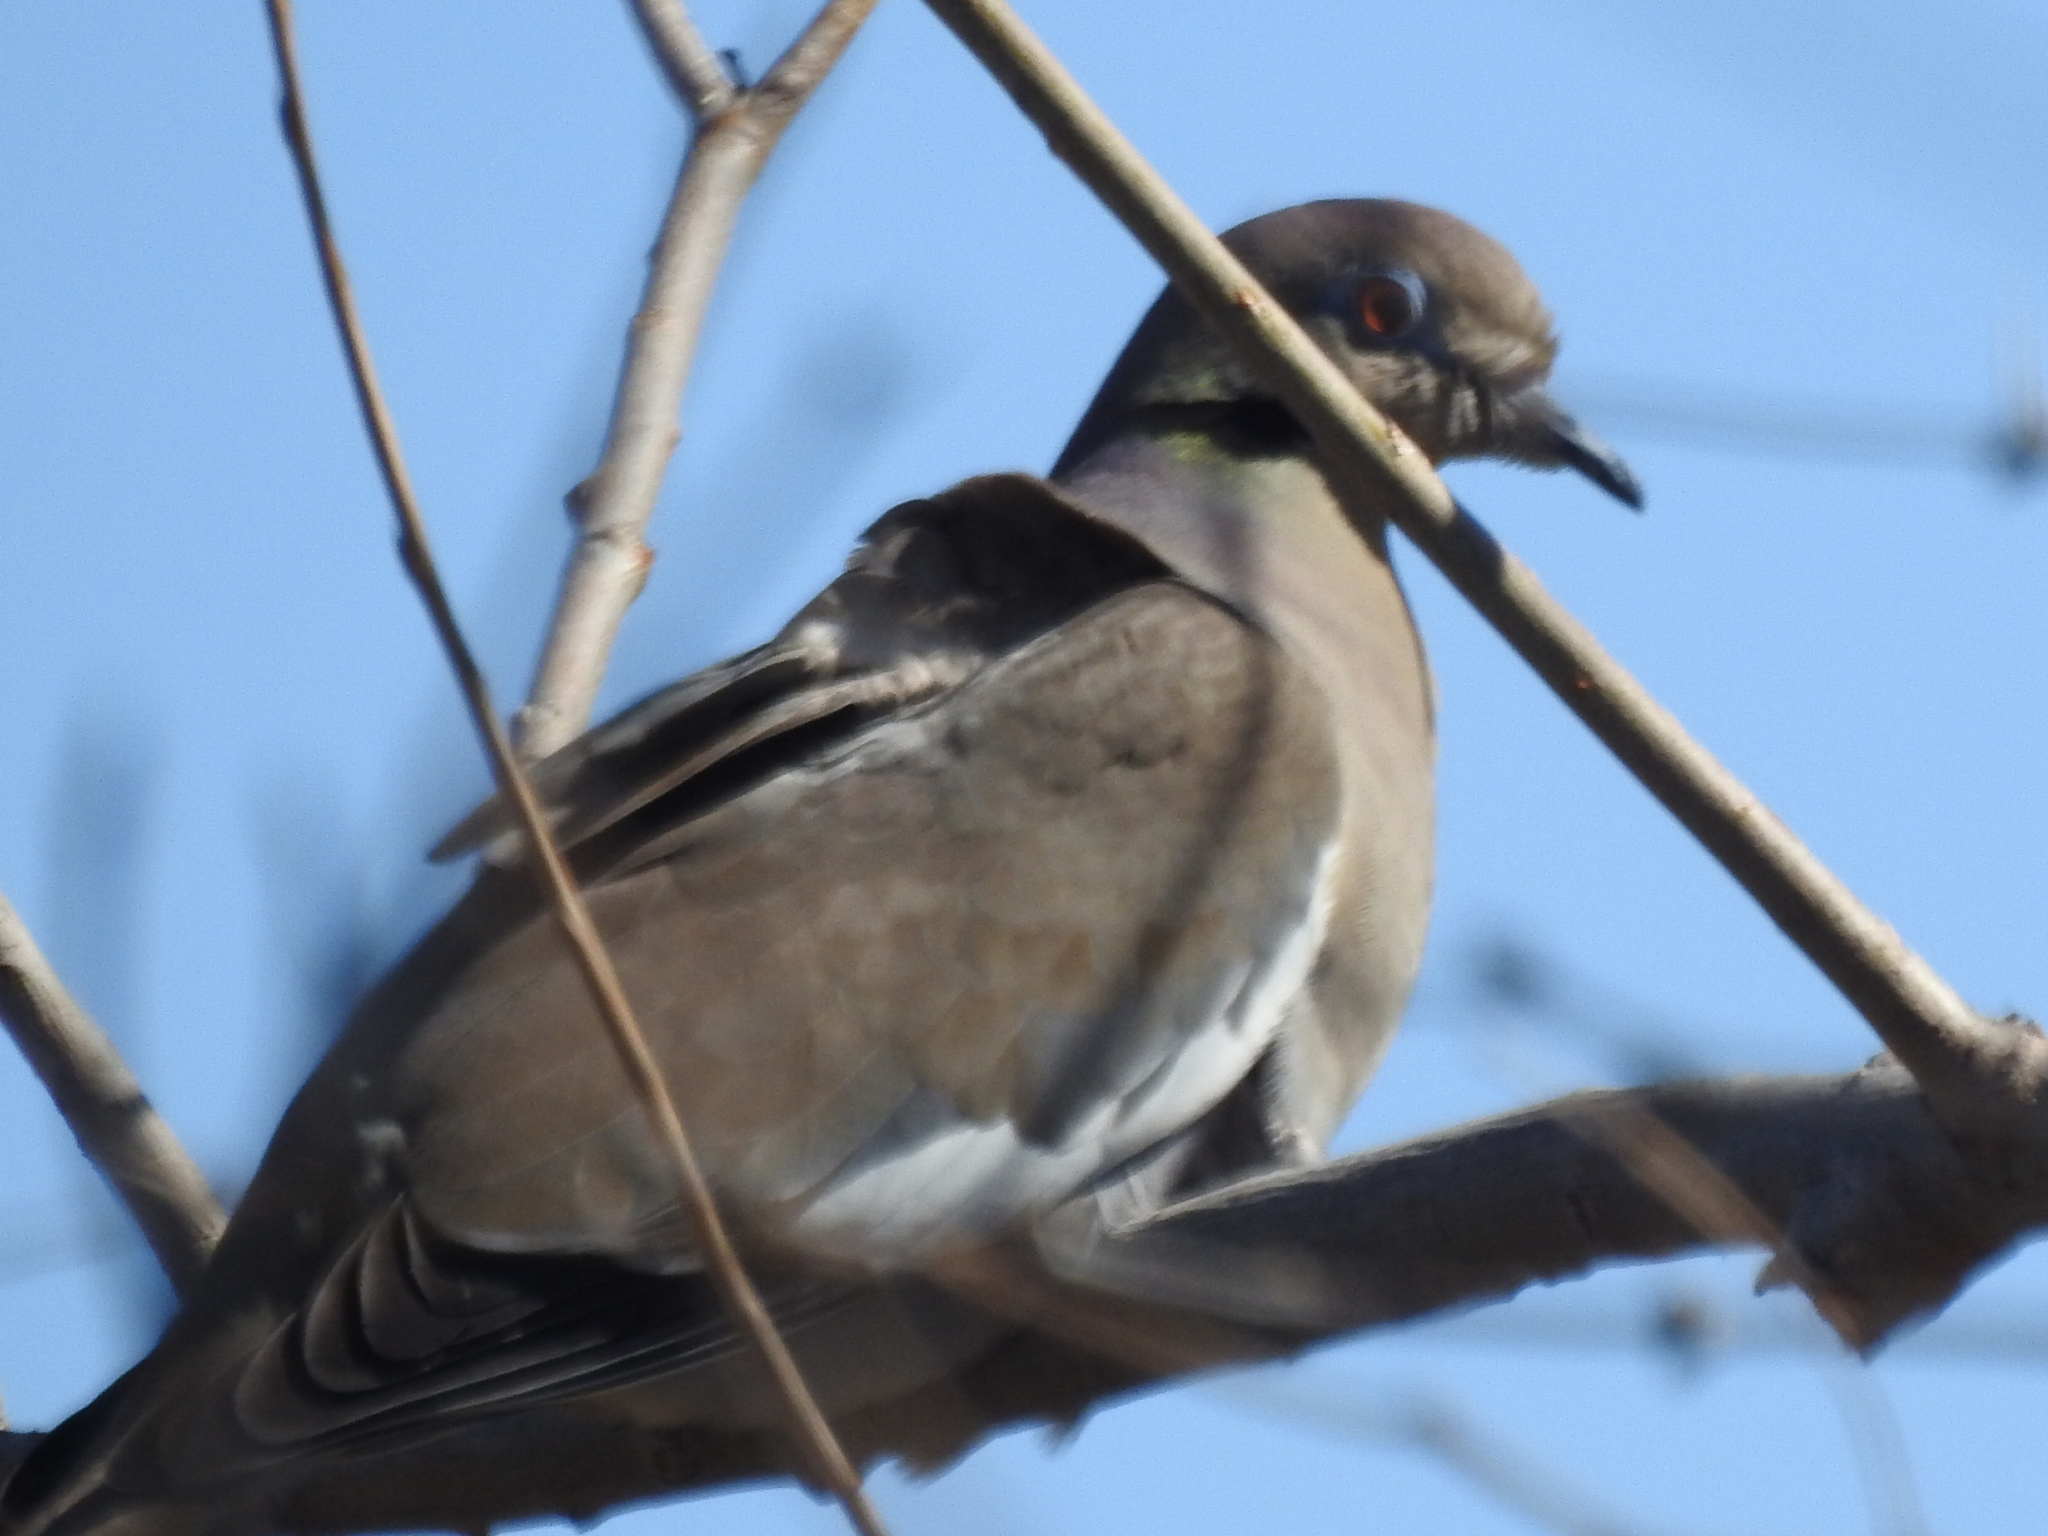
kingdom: Animalia
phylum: Chordata
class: Aves
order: Columbiformes
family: Columbidae
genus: Zenaida
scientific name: Zenaida asiatica
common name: White-winged dove
